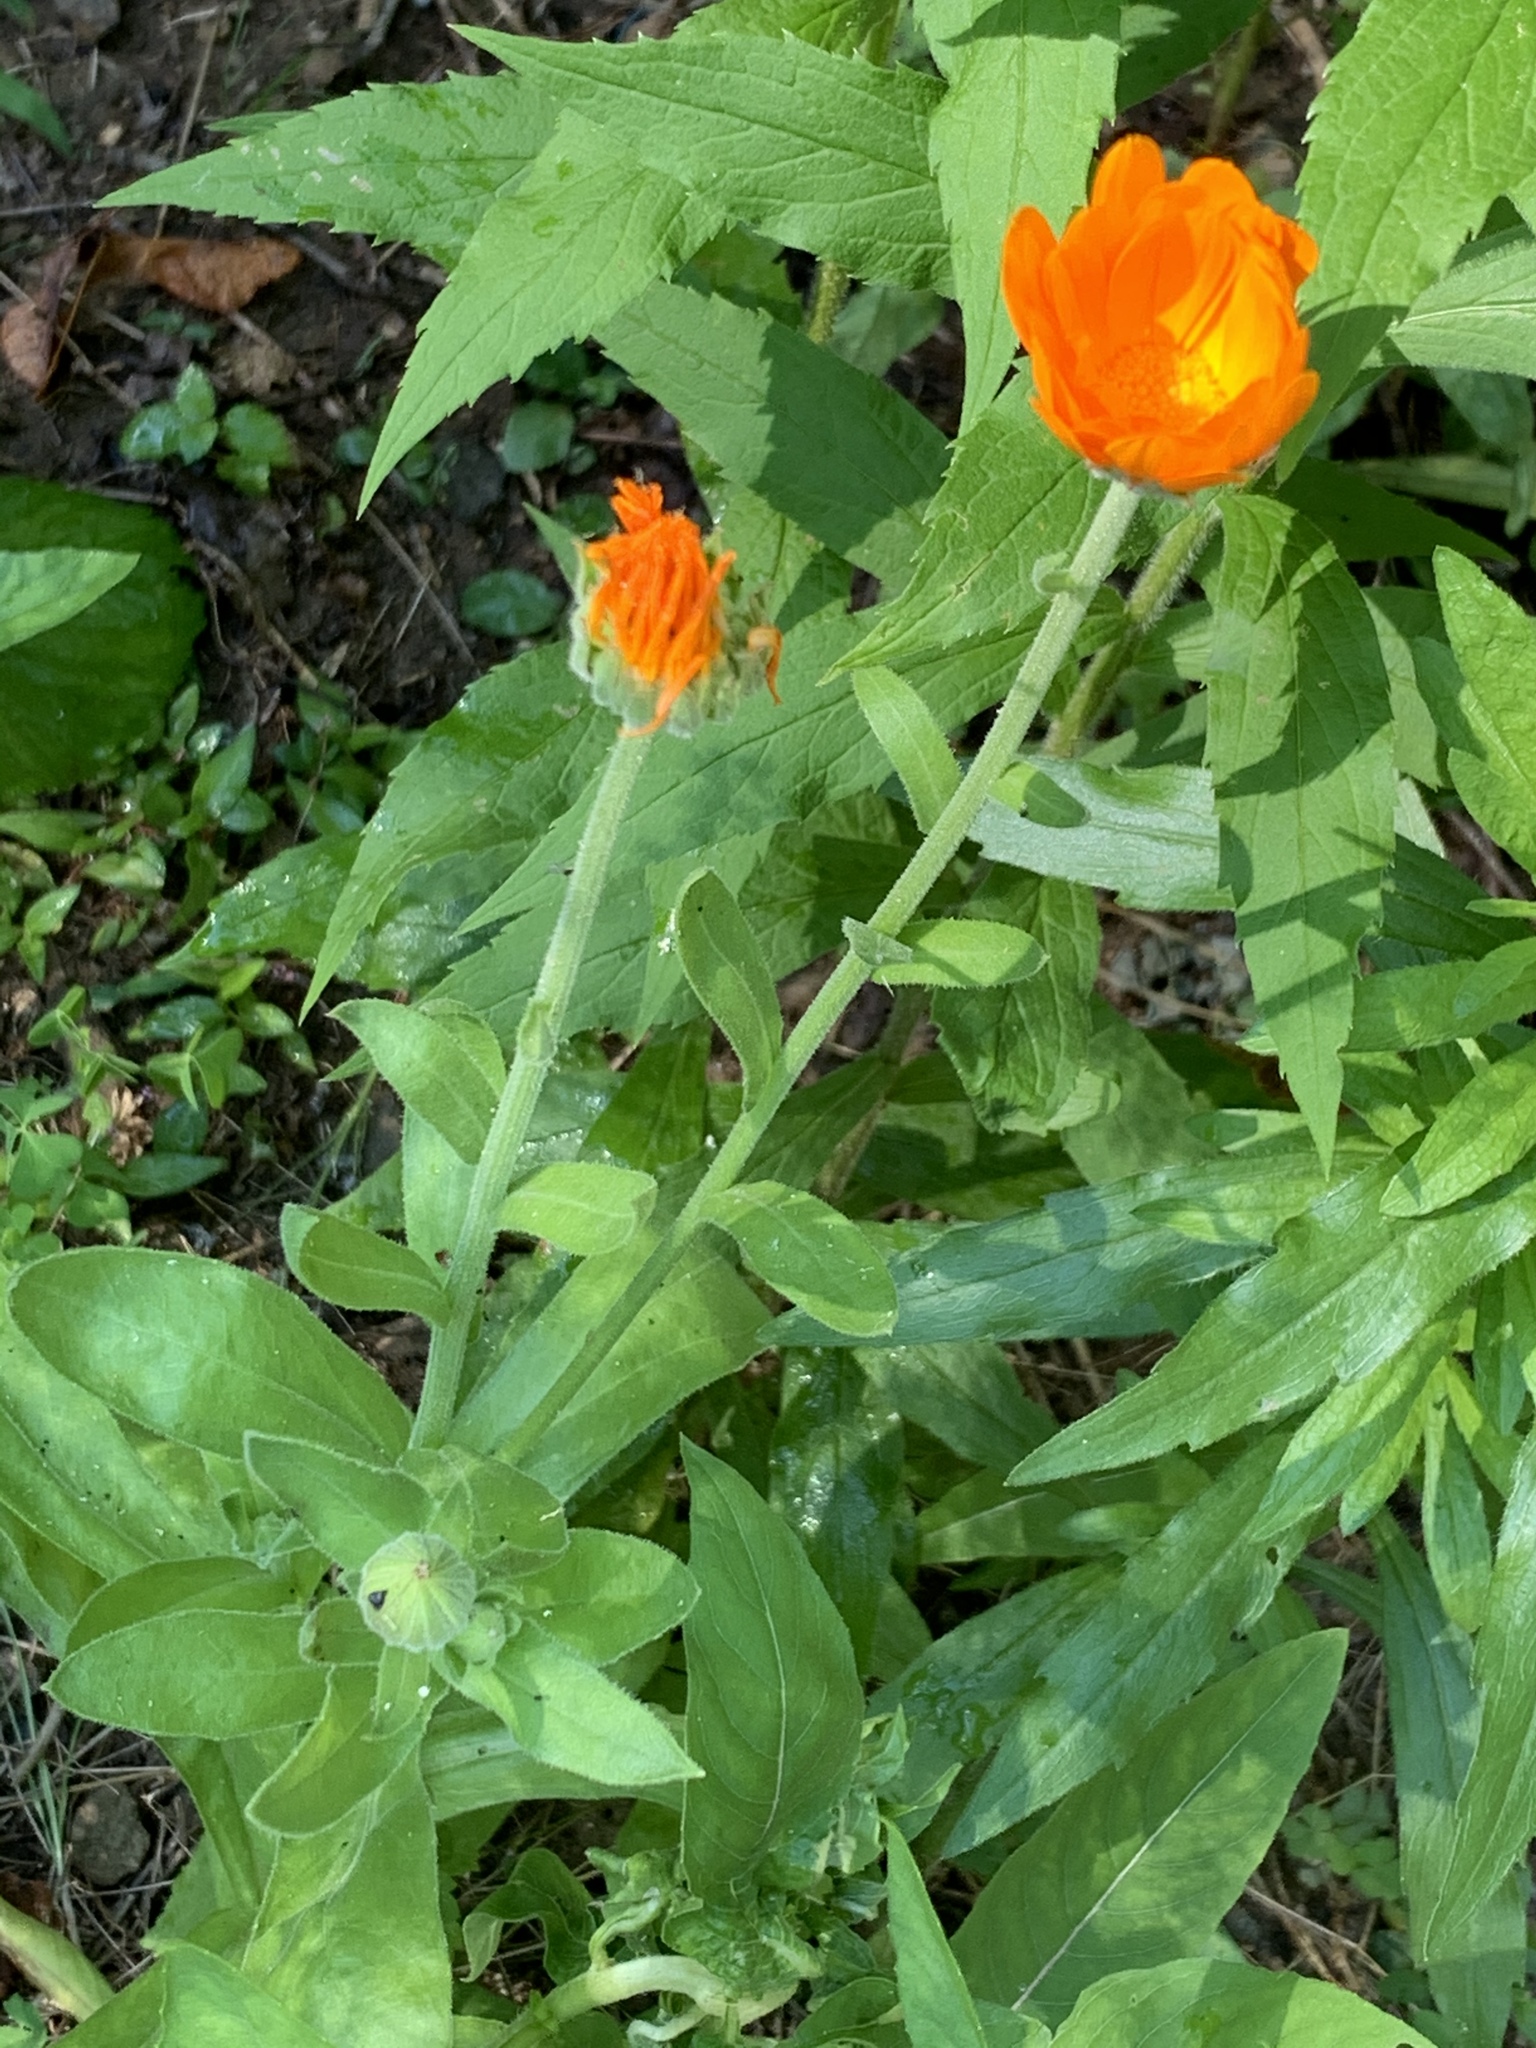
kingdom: Plantae
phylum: Tracheophyta
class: Magnoliopsida
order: Asterales
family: Asteraceae
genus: Calendula
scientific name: Calendula officinalis
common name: Pot marigold
